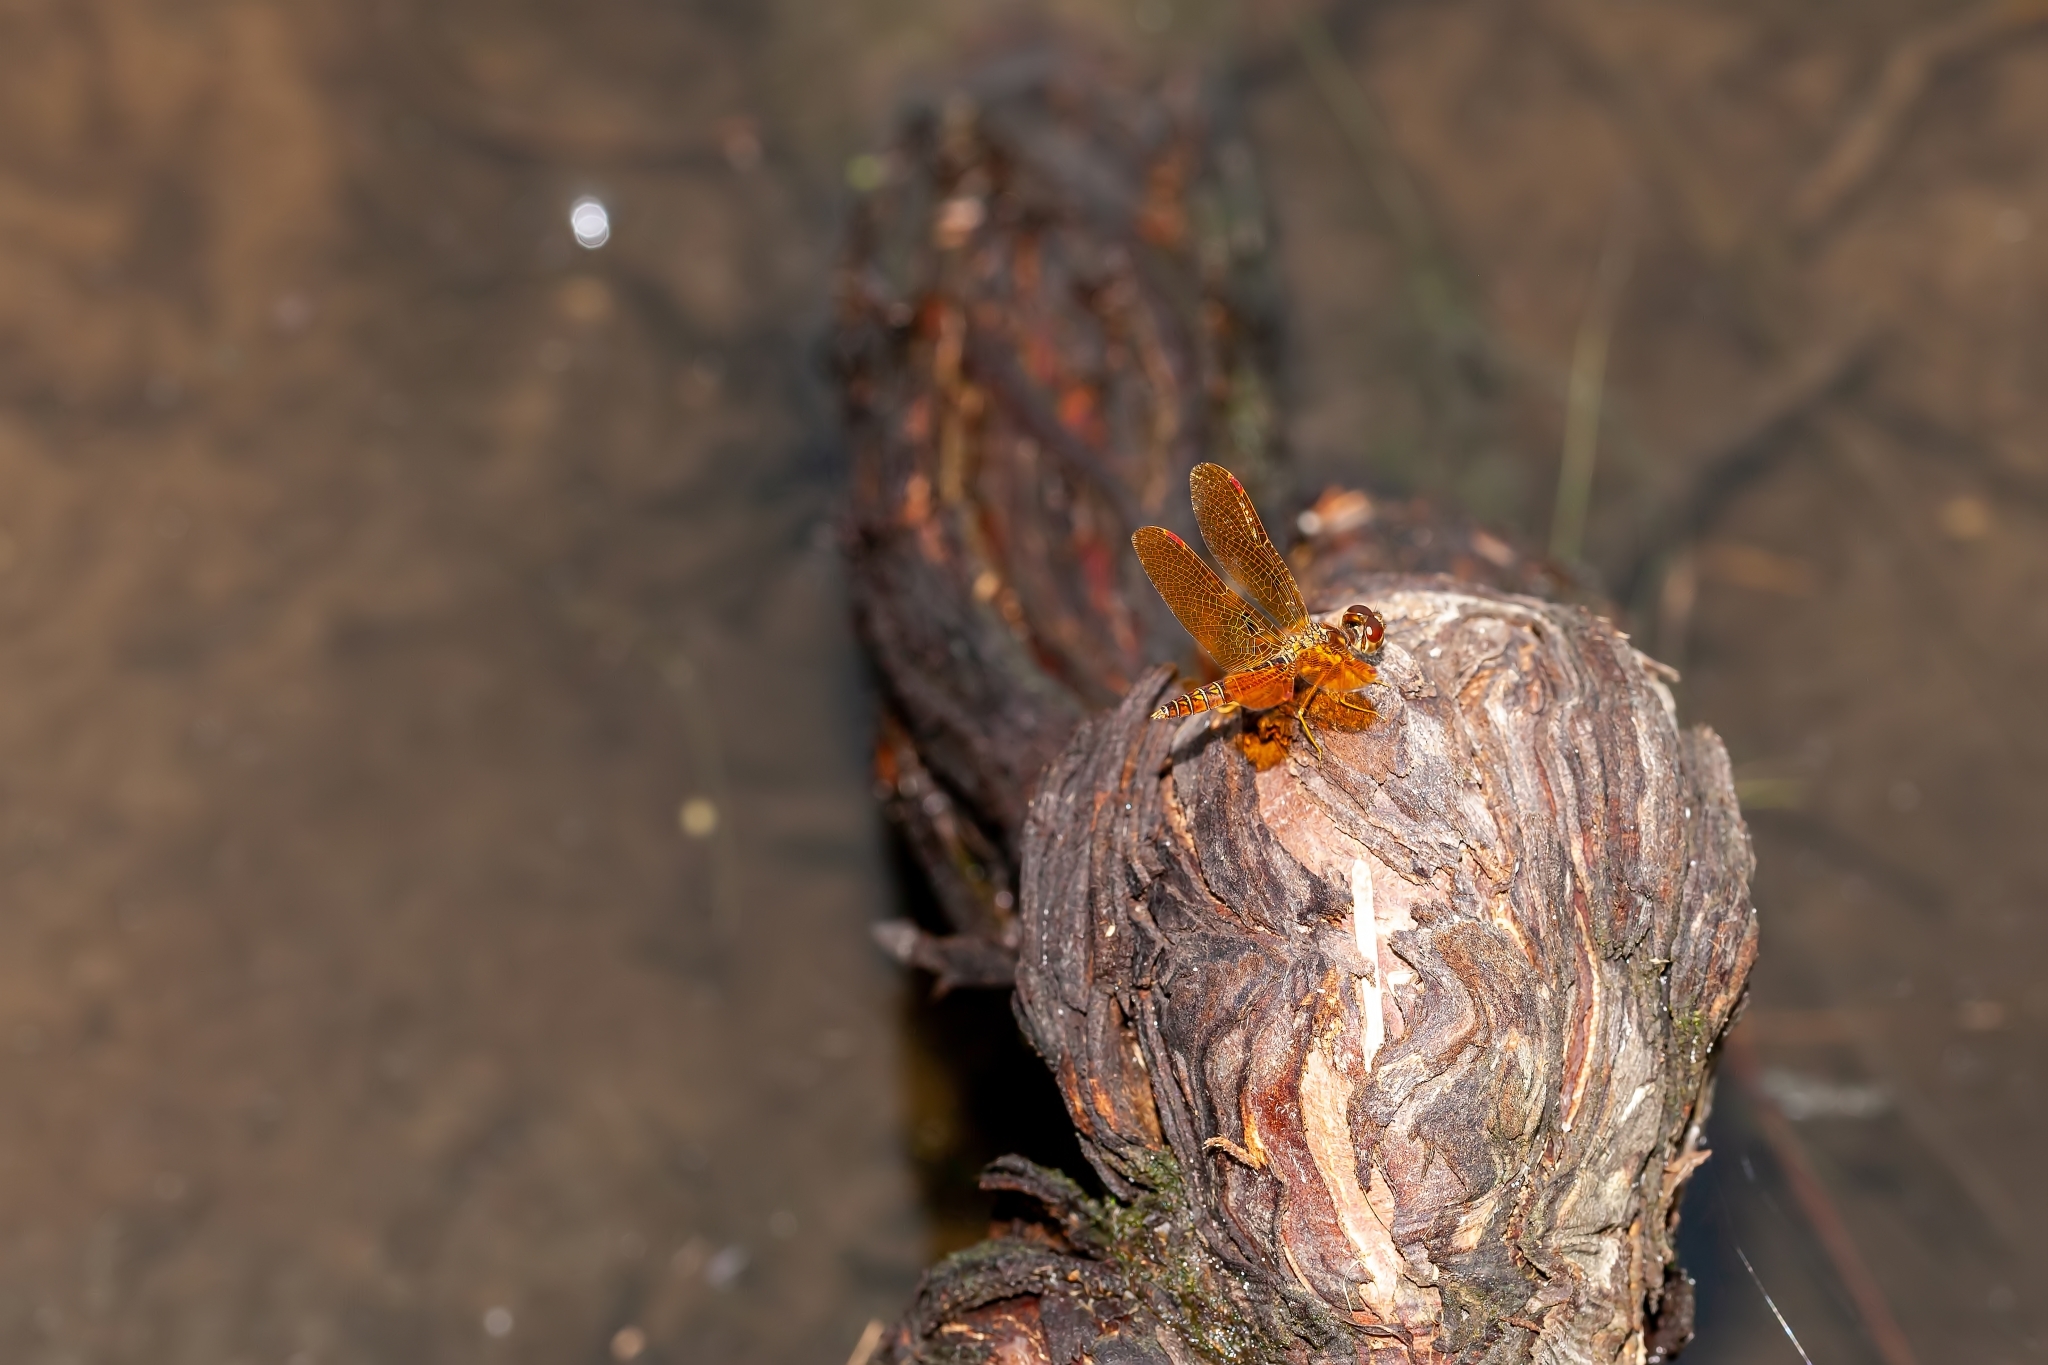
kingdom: Animalia
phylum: Arthropoda
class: Insecta
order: Odonata
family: Libellulidae
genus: Perithemis
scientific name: Perithemis tenera
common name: Eastern amberwing
